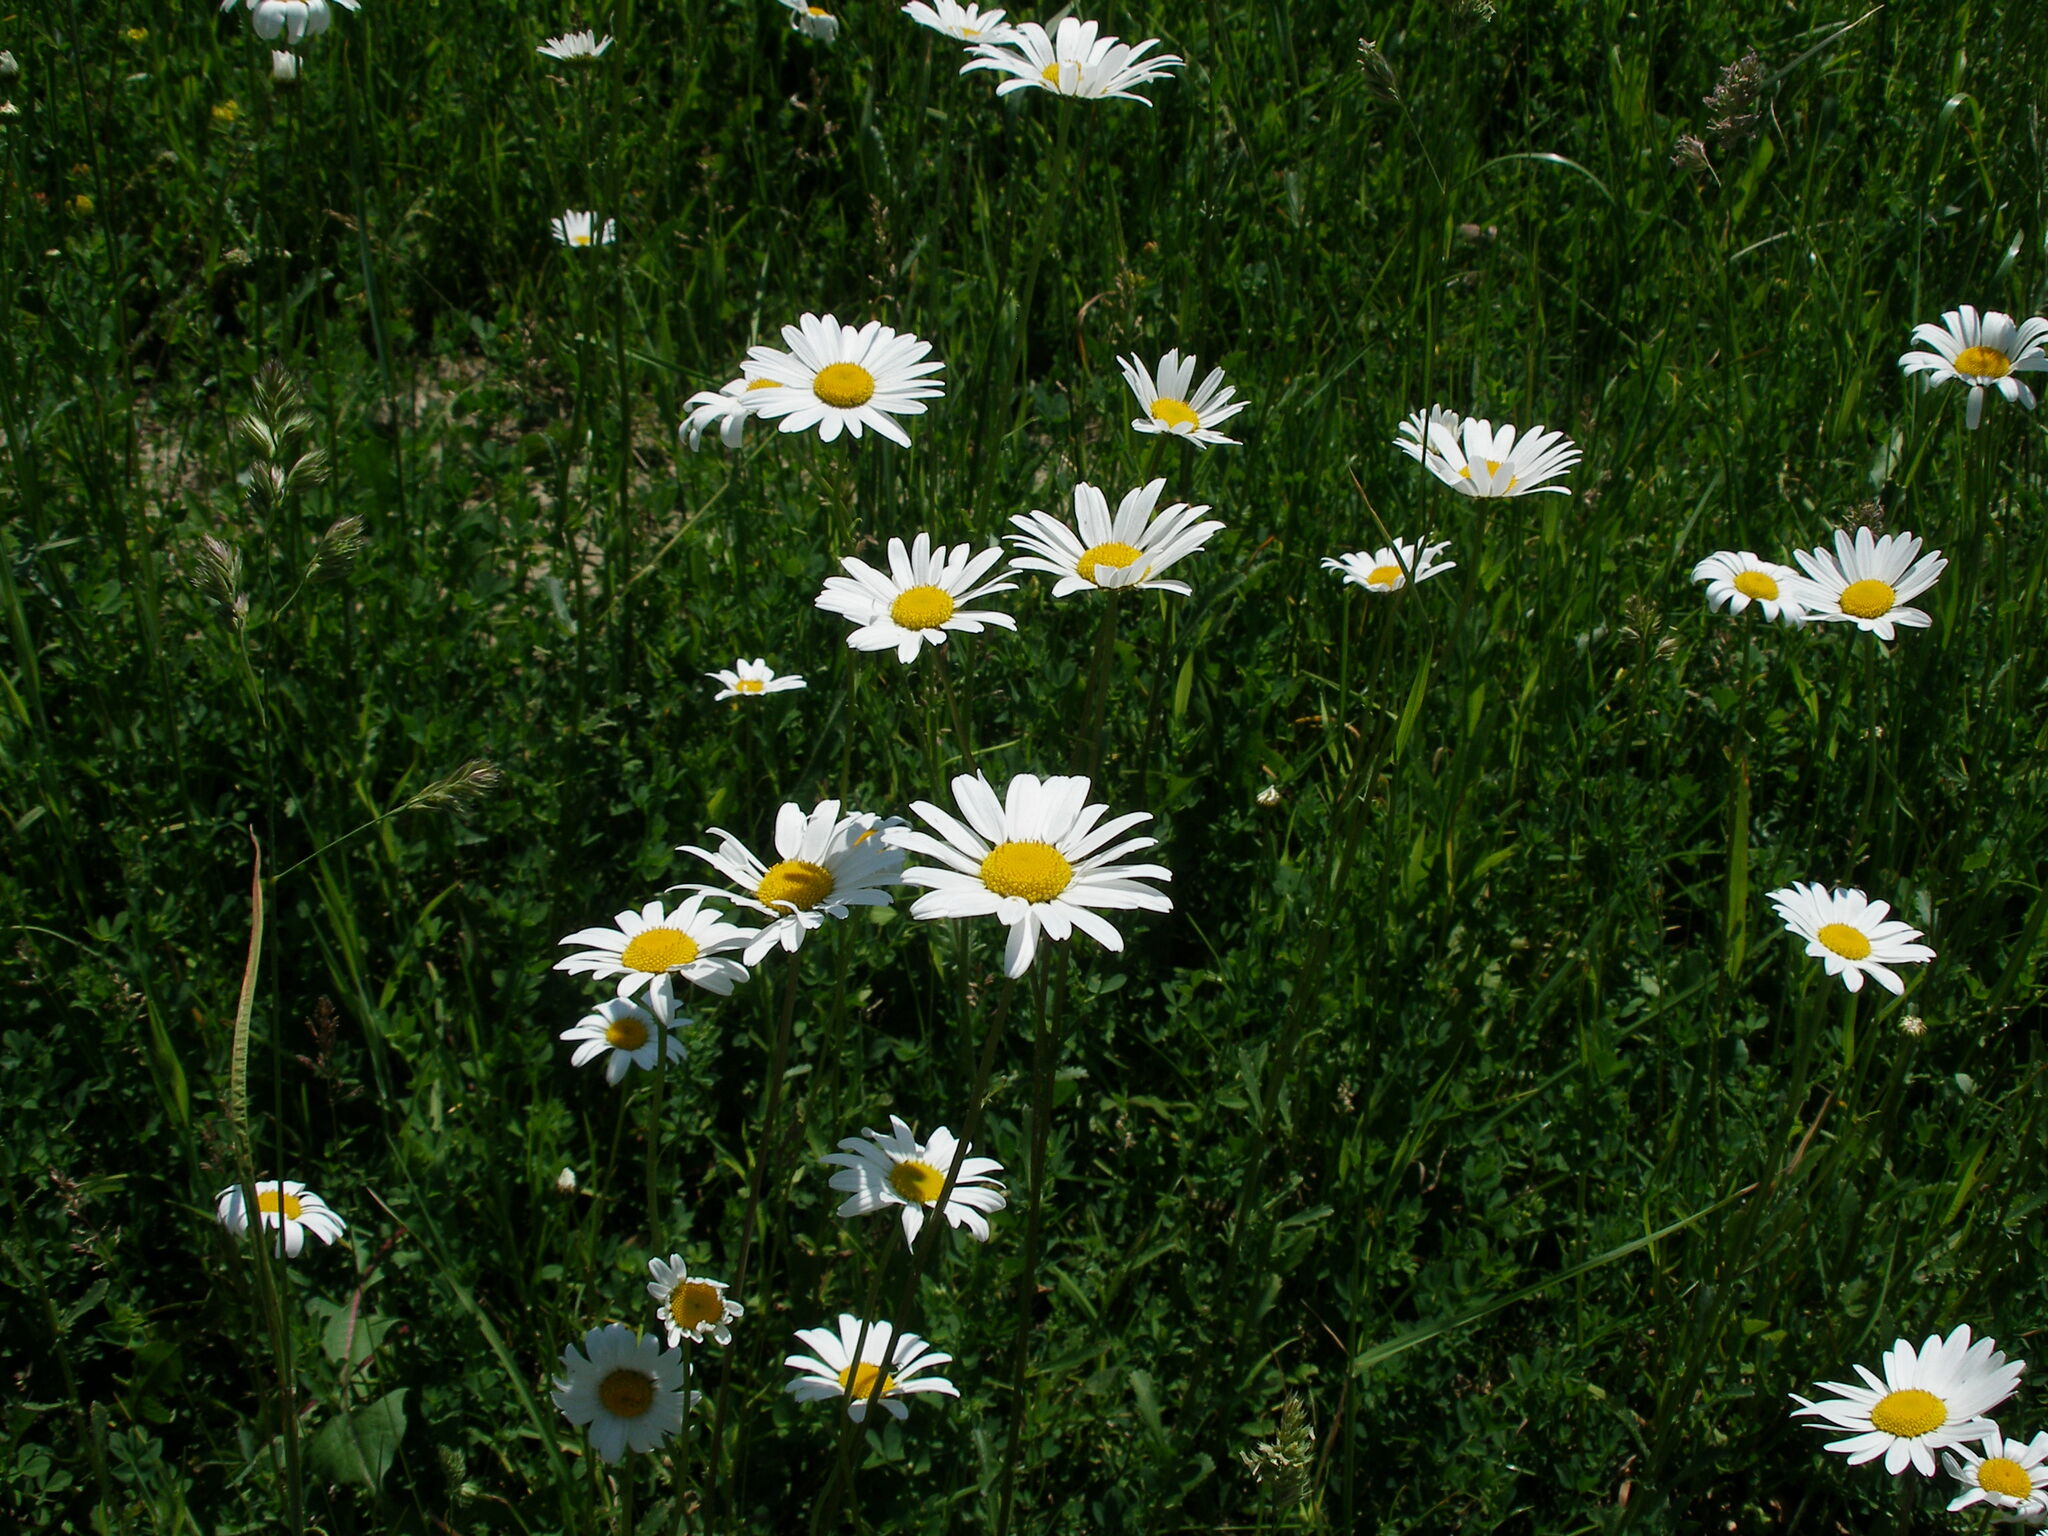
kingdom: Plantae
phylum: Tracheophyta
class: Magnoliopsida
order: Asterales
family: Asteraceae
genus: Leucanthemum
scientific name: Leucanthemum vulgare
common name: Oxeye daisy
